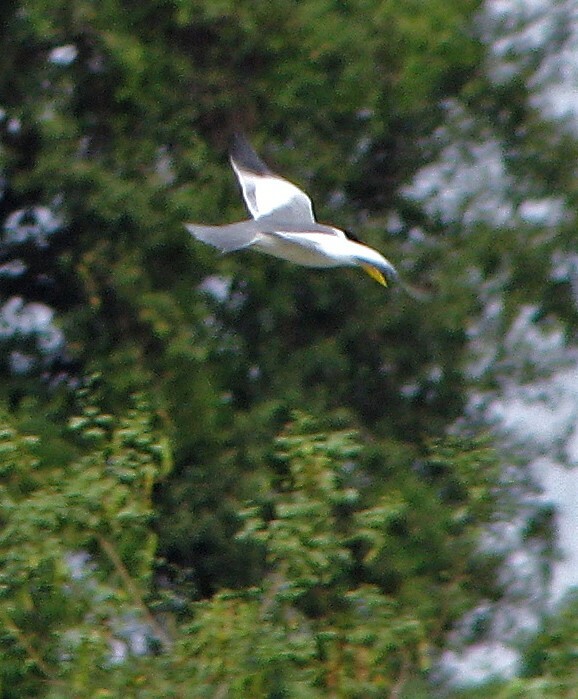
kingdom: Animalia
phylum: Chordata
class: Aves
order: Charadriiformes
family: Laridae
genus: Phaetusa
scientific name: Phaetusa simplex
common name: Large-billed tern
